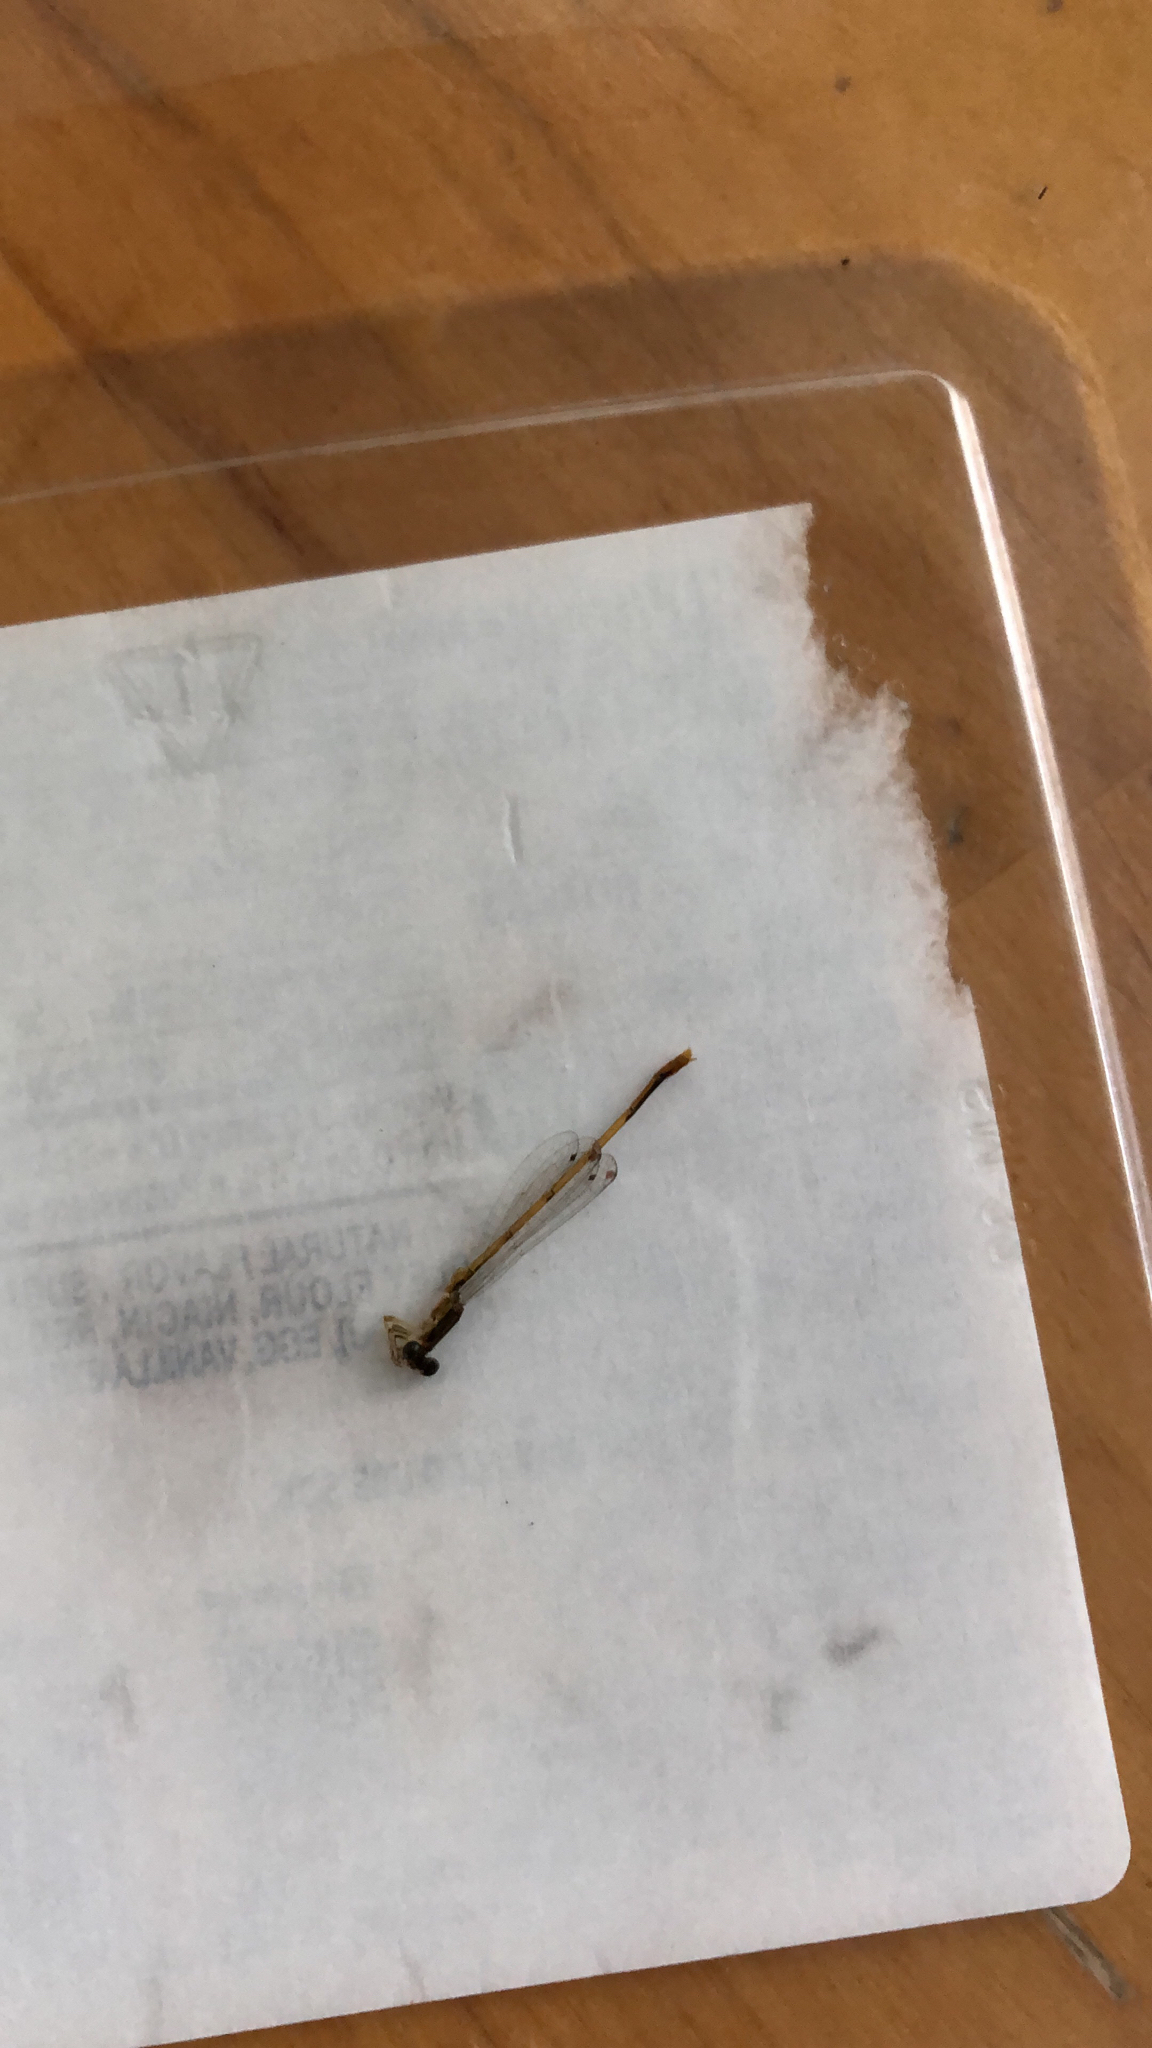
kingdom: Animalia
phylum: Arthropoda
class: Insecta
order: Odonata
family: Coenagrionidae
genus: Ischnura
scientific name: Ischnura hastata
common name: Citrine forktail
